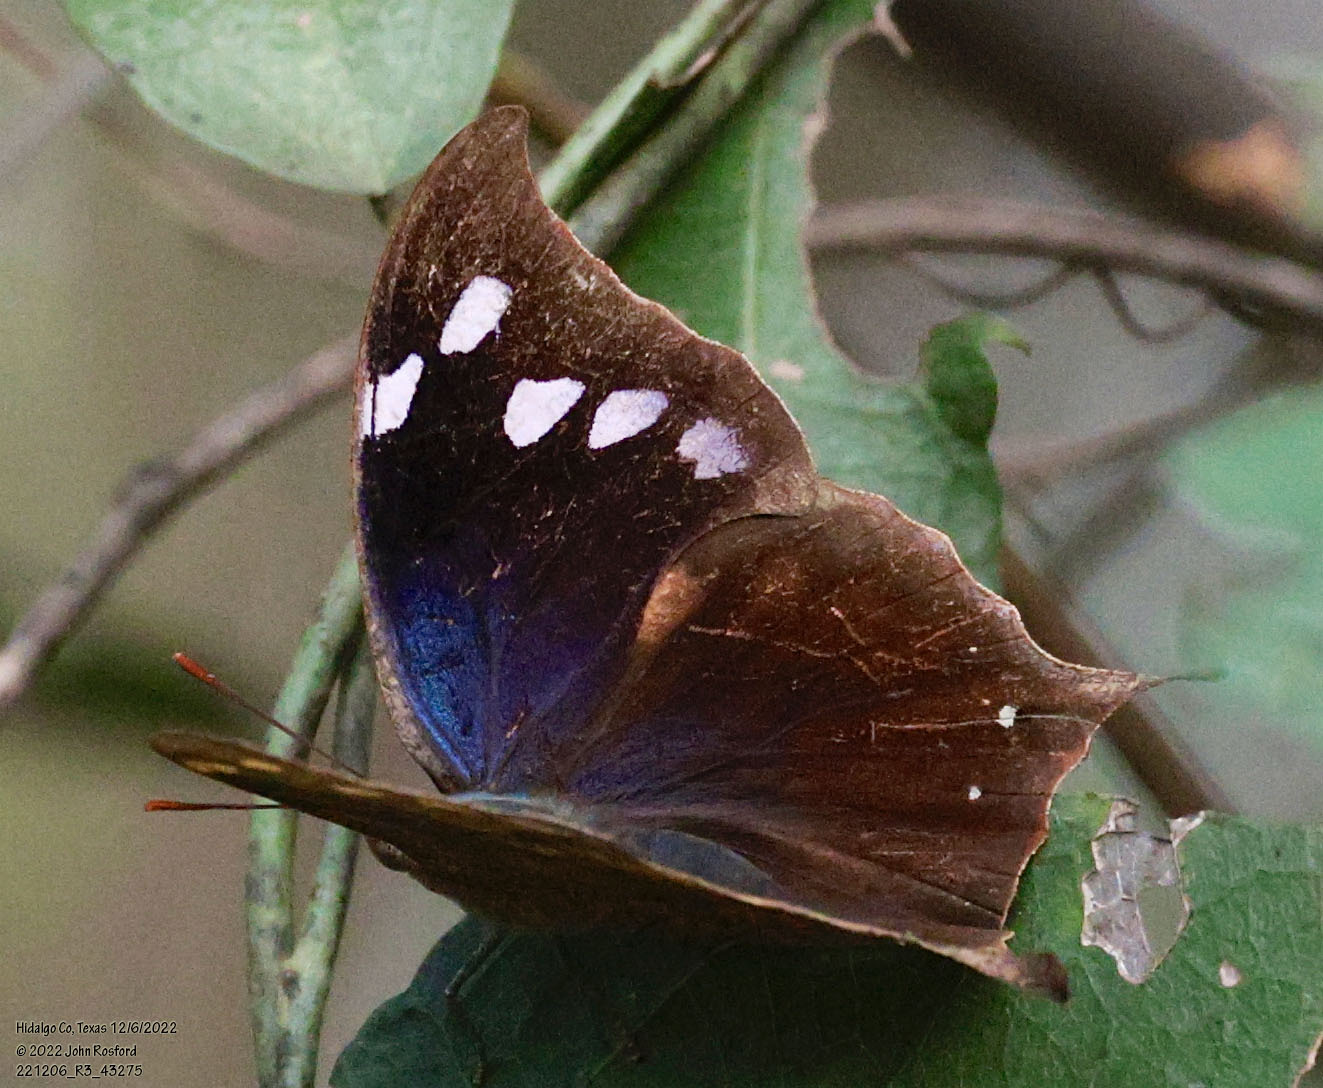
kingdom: Animalia
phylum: Arthropoda
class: Insecta
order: Lepidoptera
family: Nymphalidae
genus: Anaea
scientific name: Anaea pithyusa
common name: Pale-spotted leafwing
